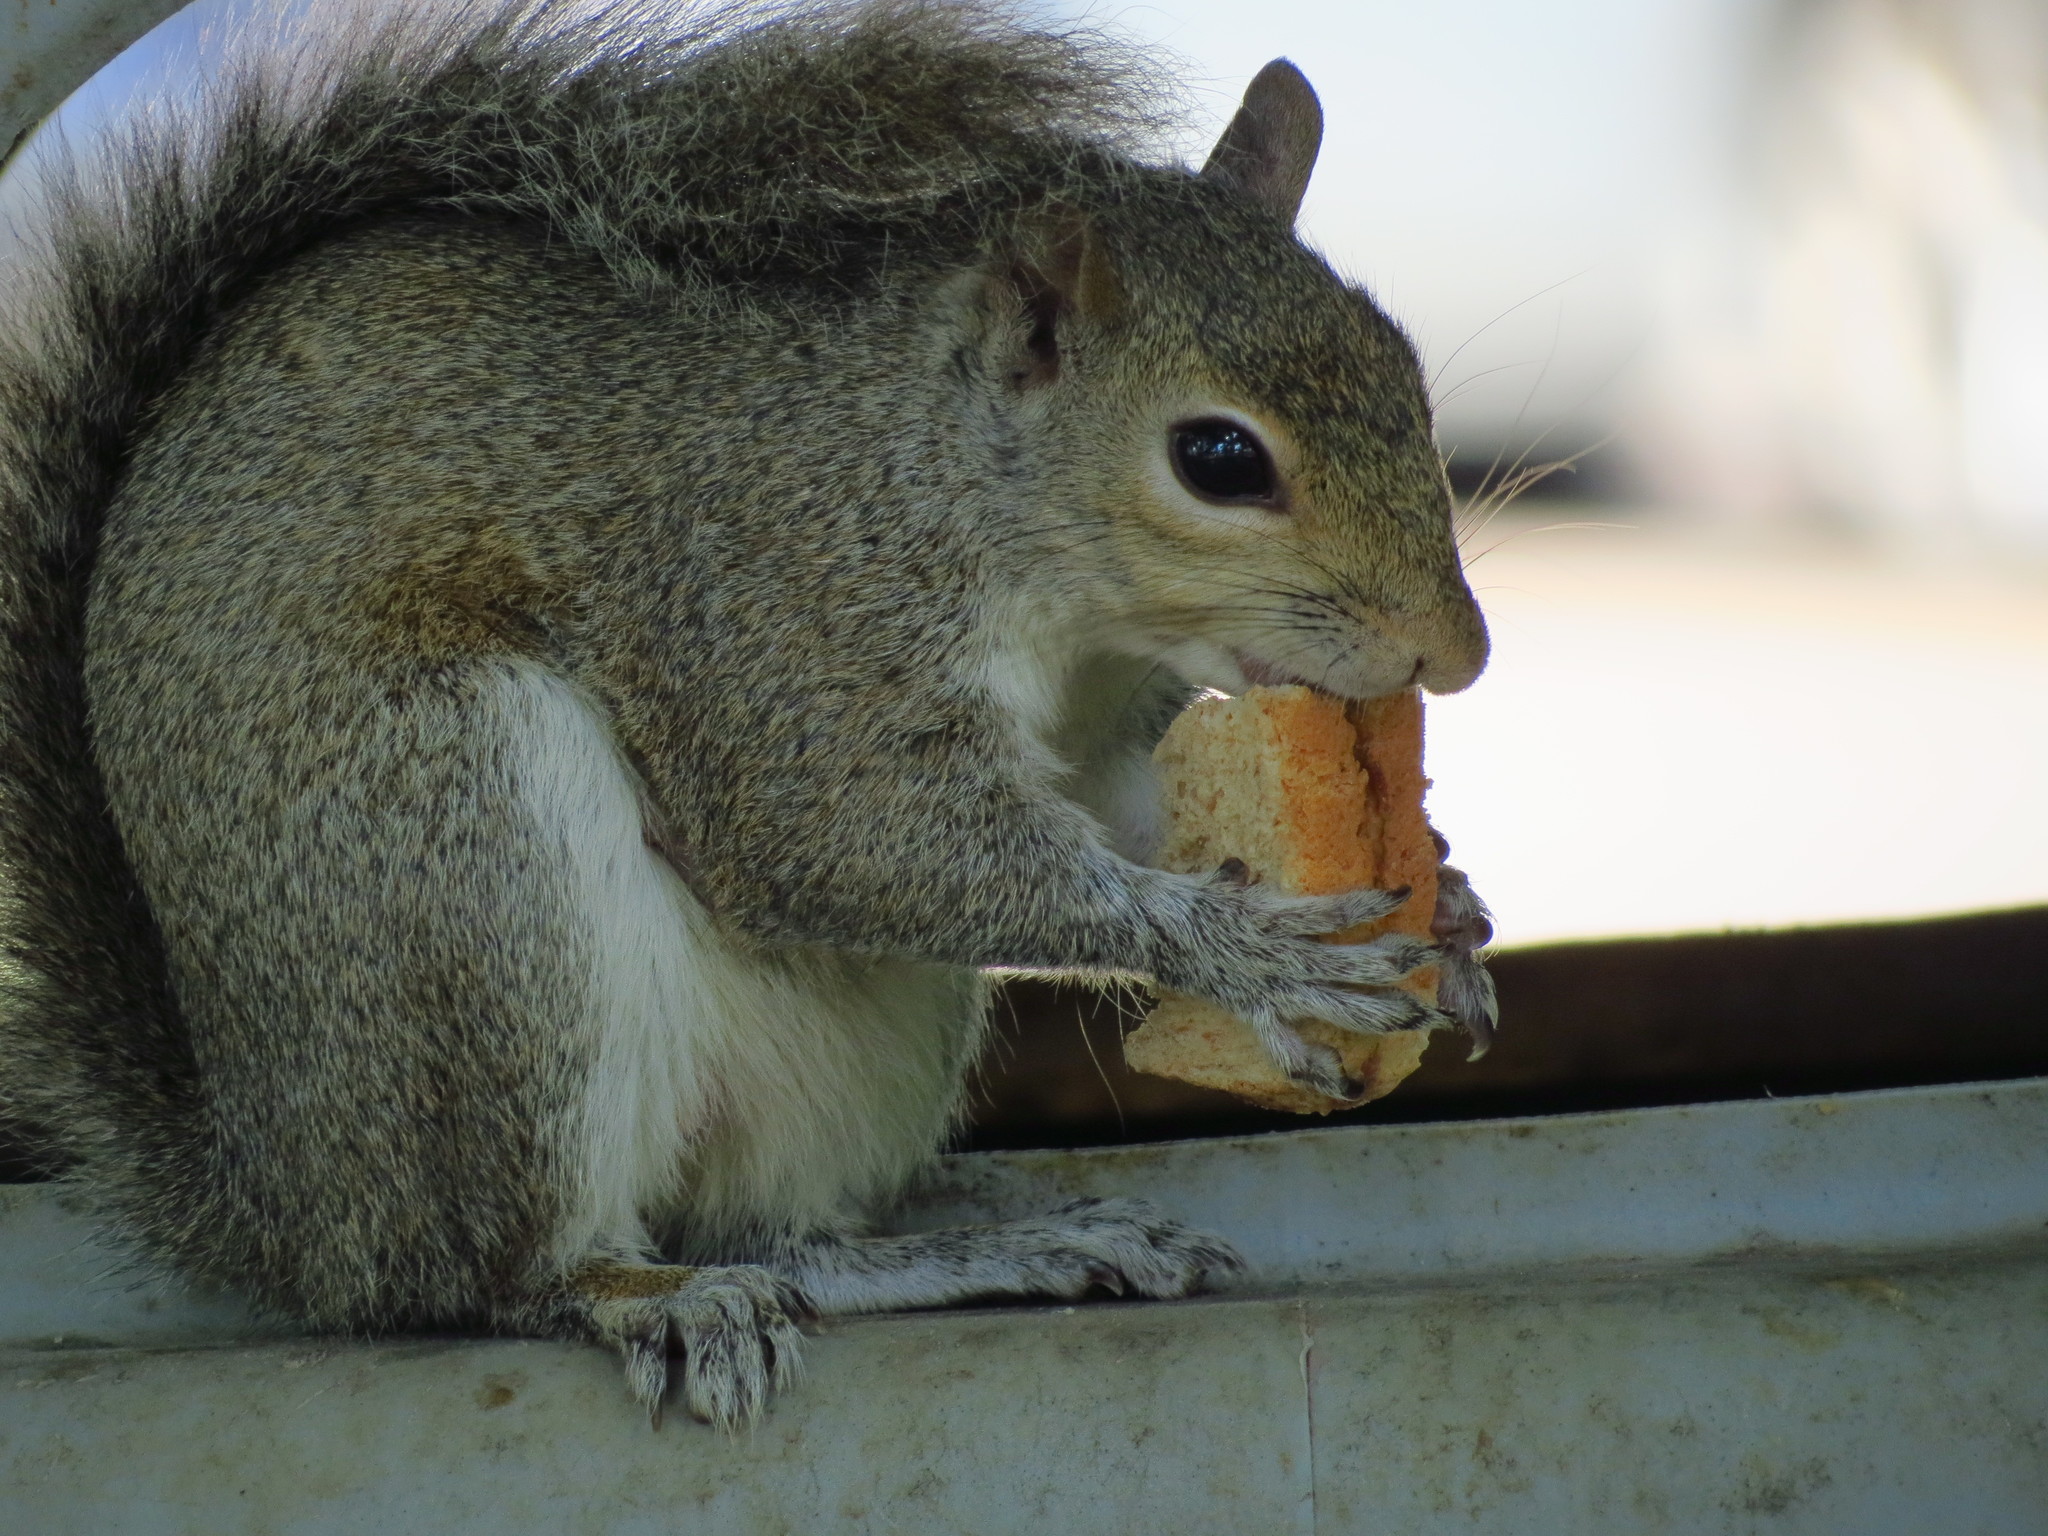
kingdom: Animalia
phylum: Chordata
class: Mammalia
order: Rodentia
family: Sciuridae
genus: Sciurus
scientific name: Sciurus carolinensis
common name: Eastern gray squirrel
